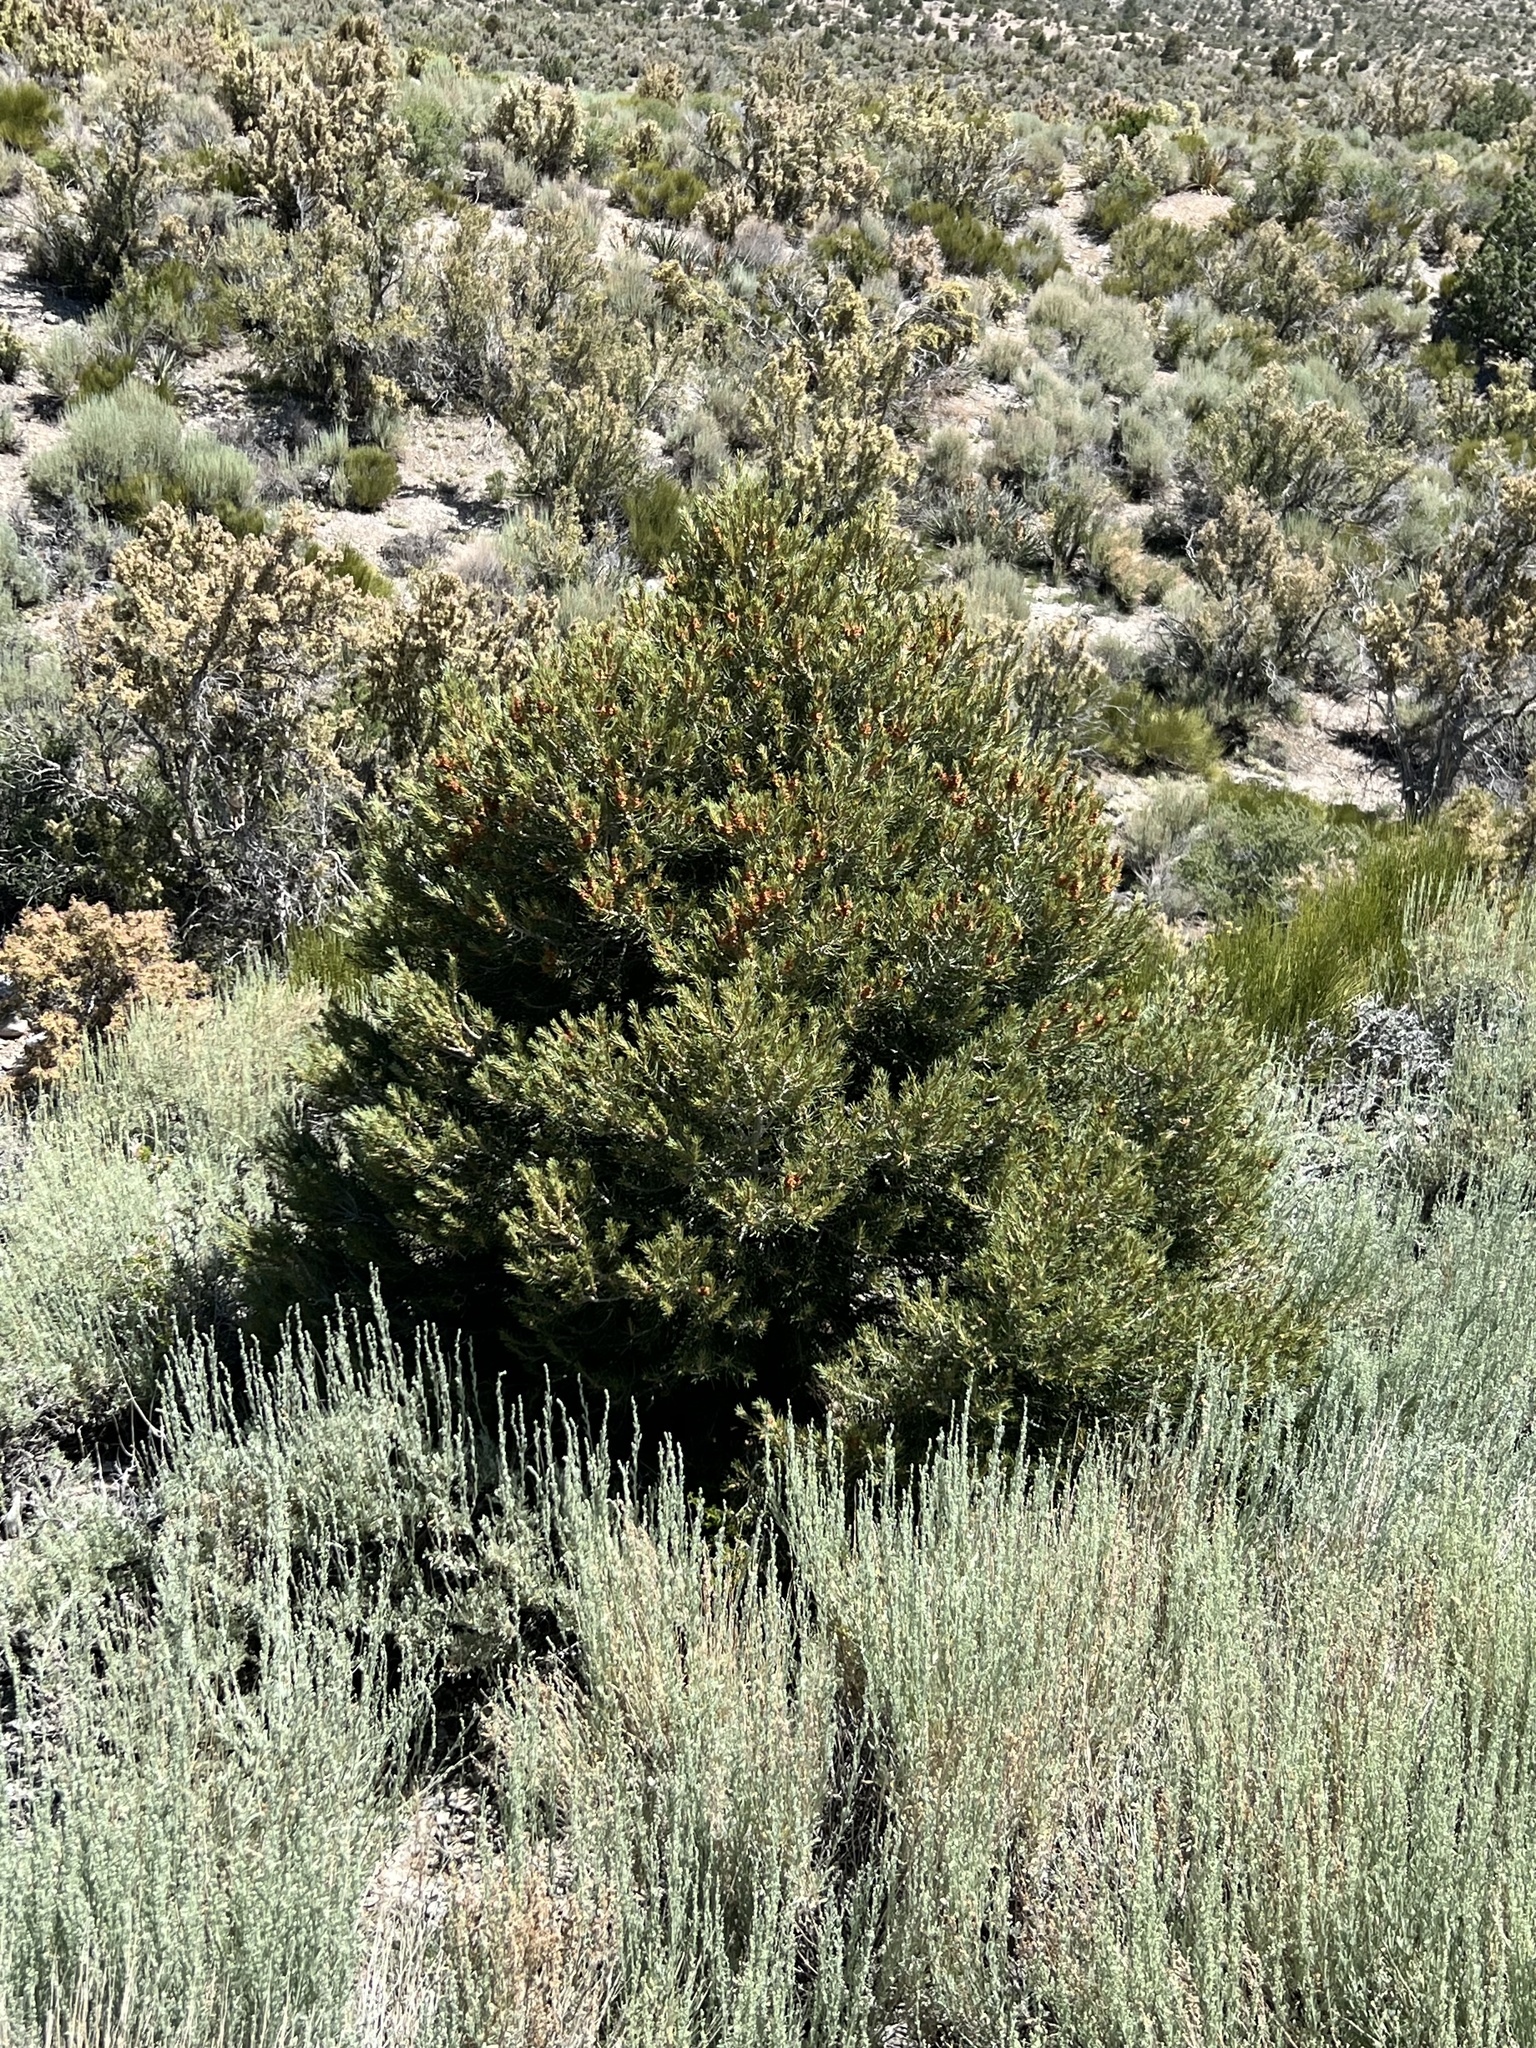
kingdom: Plantae
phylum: Tracheophyta
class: Pinopsida
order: Pinales
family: Pinaceae
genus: Pinus
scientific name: Pinus monophylla
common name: One-leaved nut pine
